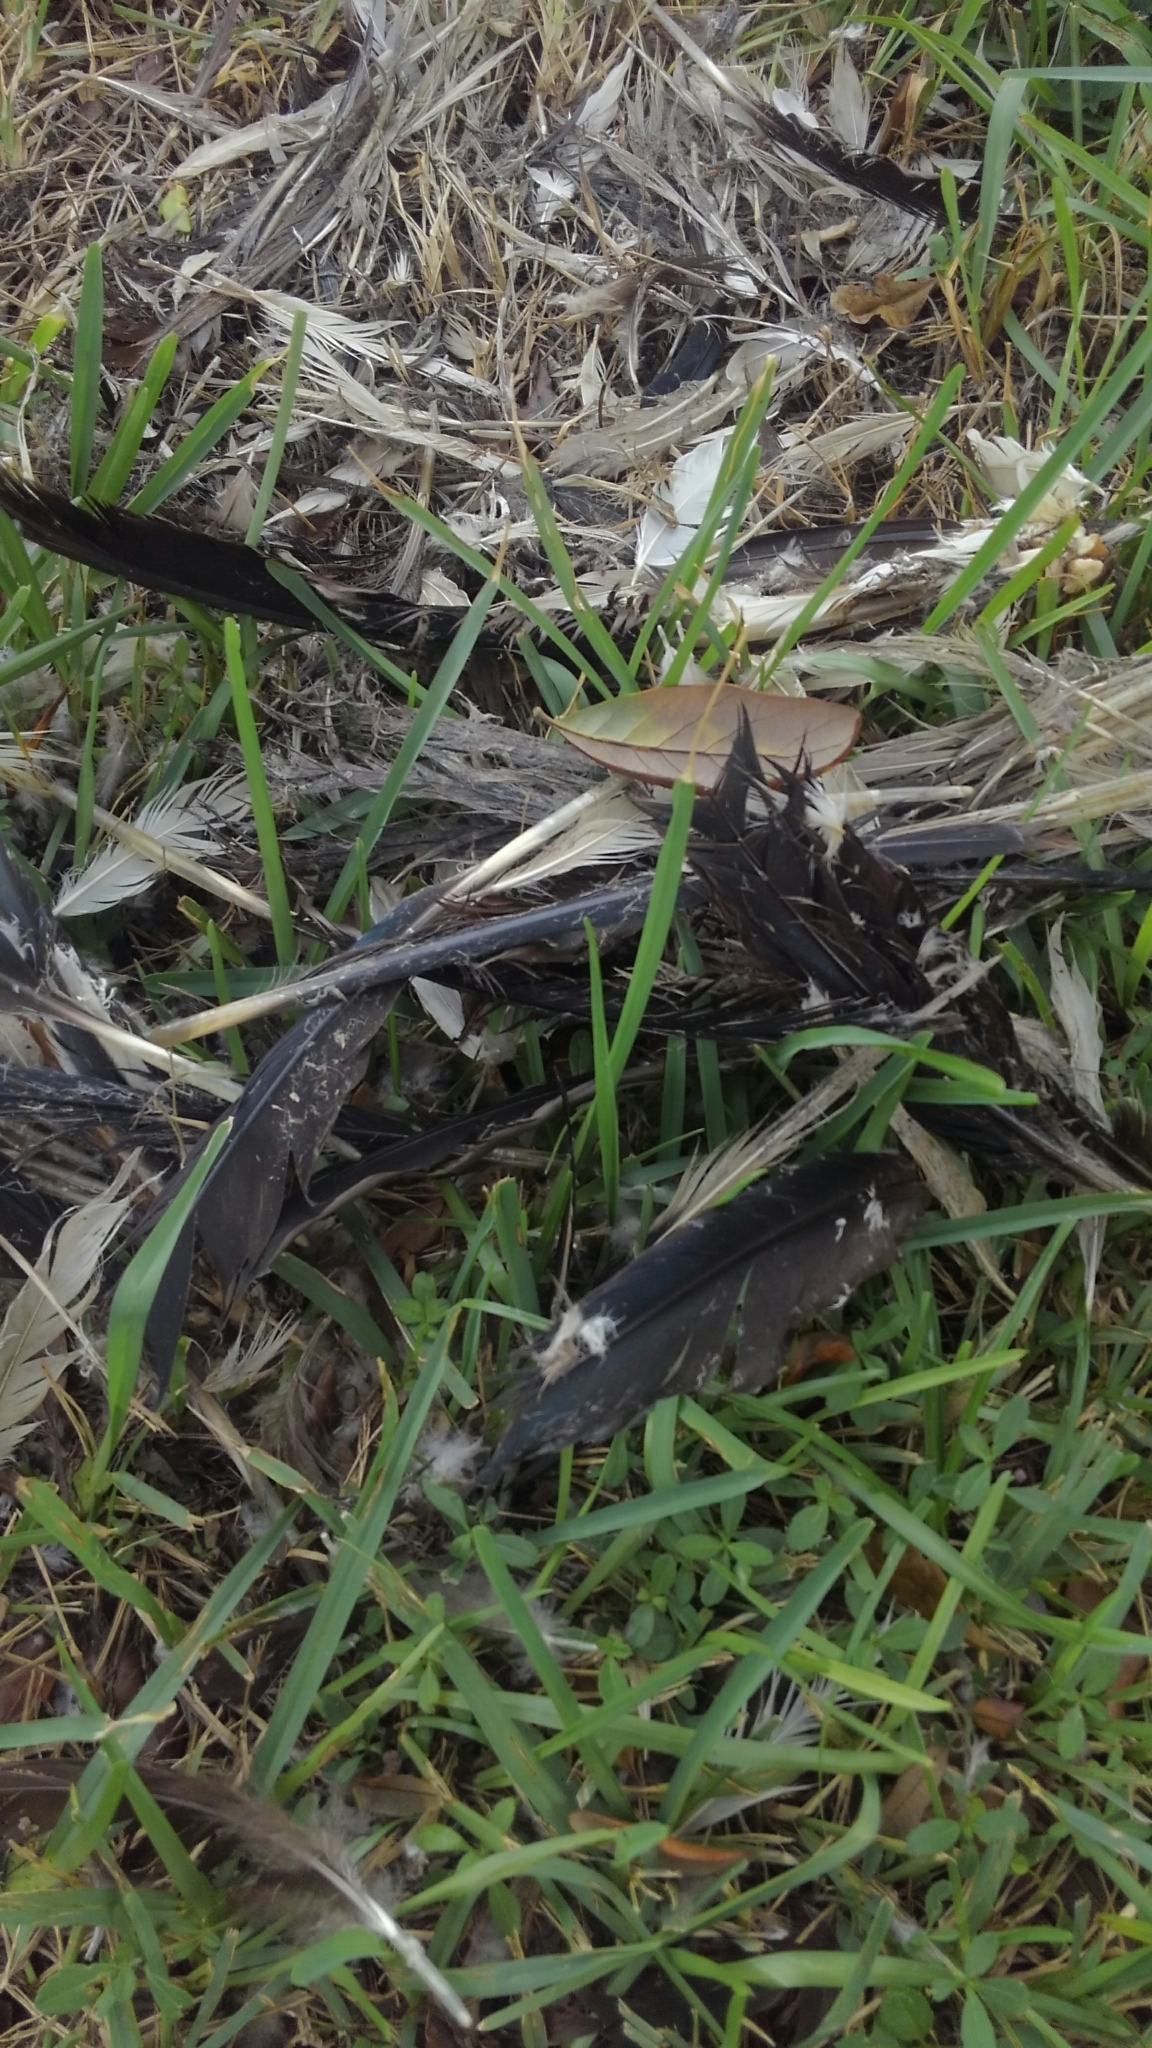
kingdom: Animalia
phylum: Chordata
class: Aves
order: Anseriformes
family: Anatidae
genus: Cairina
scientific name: Cairina moschata
